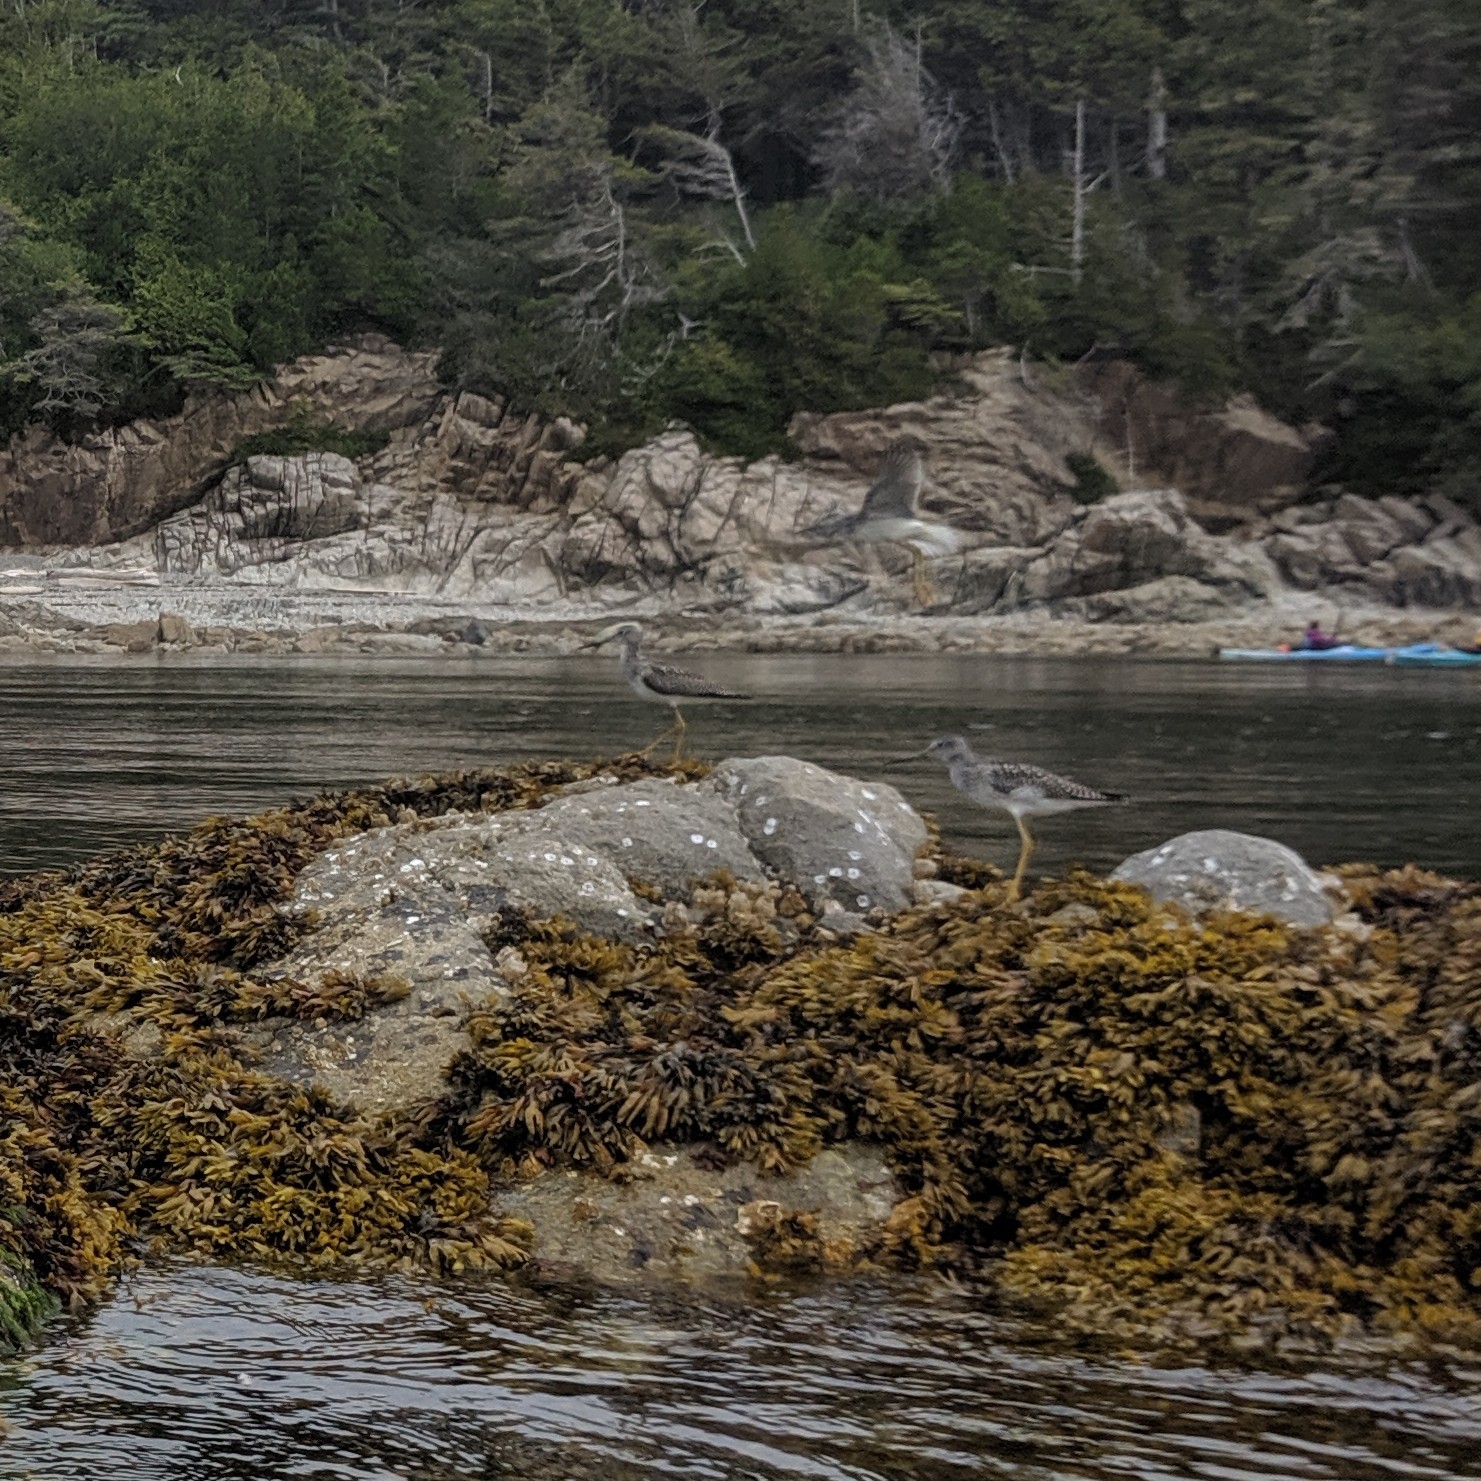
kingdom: Animalia
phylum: Chordata
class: Aves
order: Charadriiformes
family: Scolopacidae
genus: Tringa
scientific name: Tringa melanoleuca
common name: Greater yellowlegs
